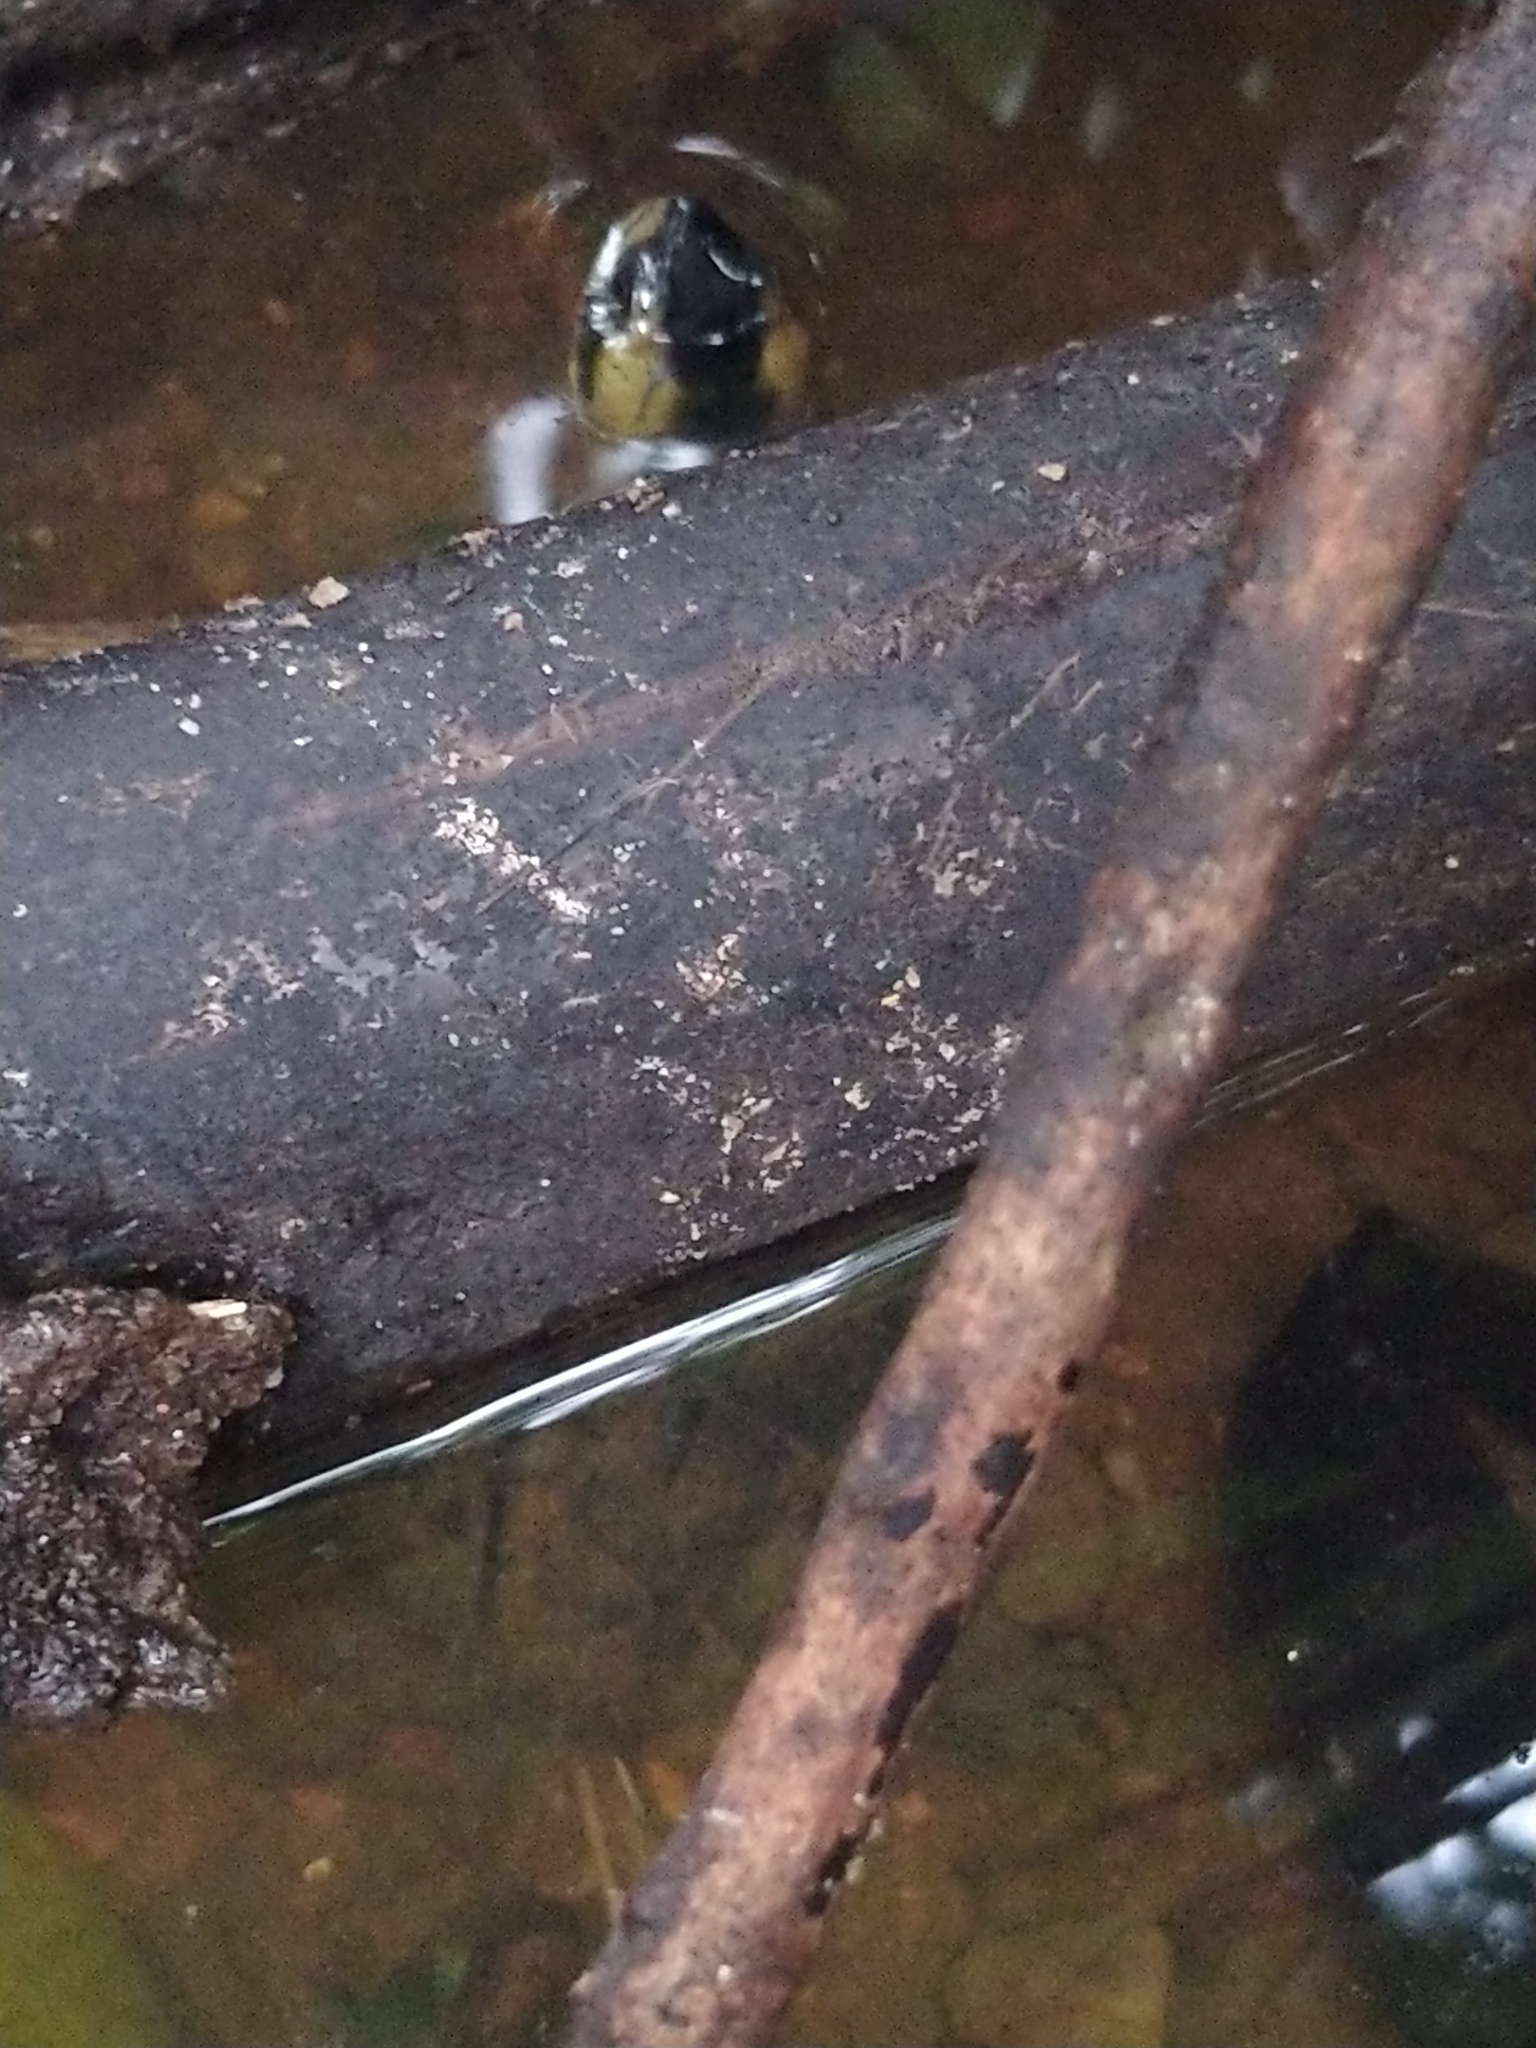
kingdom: Animalia
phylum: Chordata
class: Testudines
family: Geoemydidae
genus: Melanochelys
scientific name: Melanochelys trijuga
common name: Indian black turtle
